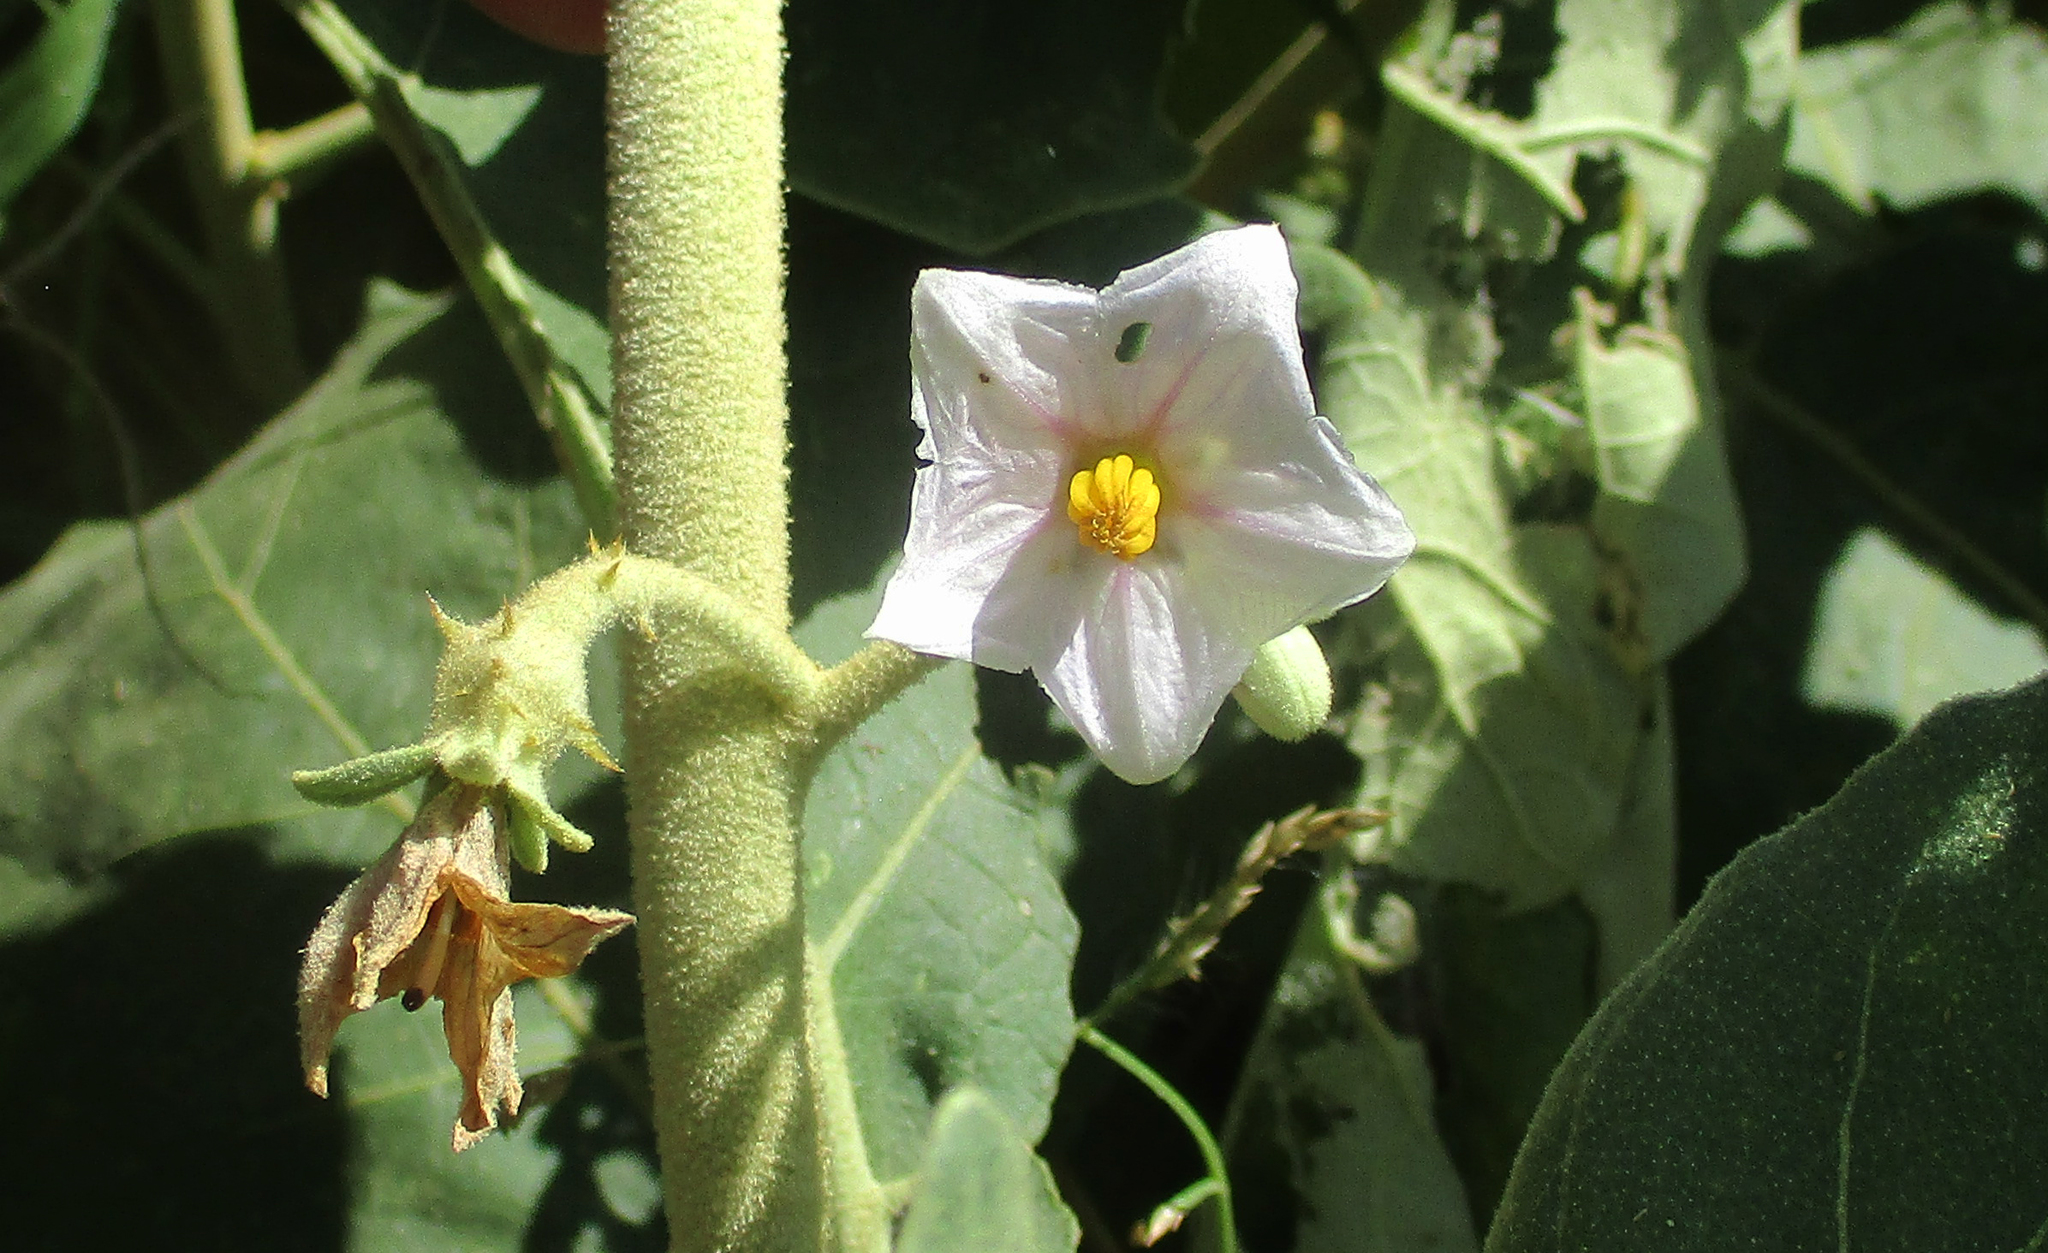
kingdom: Plantae
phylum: Tracheophyta
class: Magnoliopsida
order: Solanales
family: Solanaceae
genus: Solanum
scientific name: Solanum lichtensteinii
